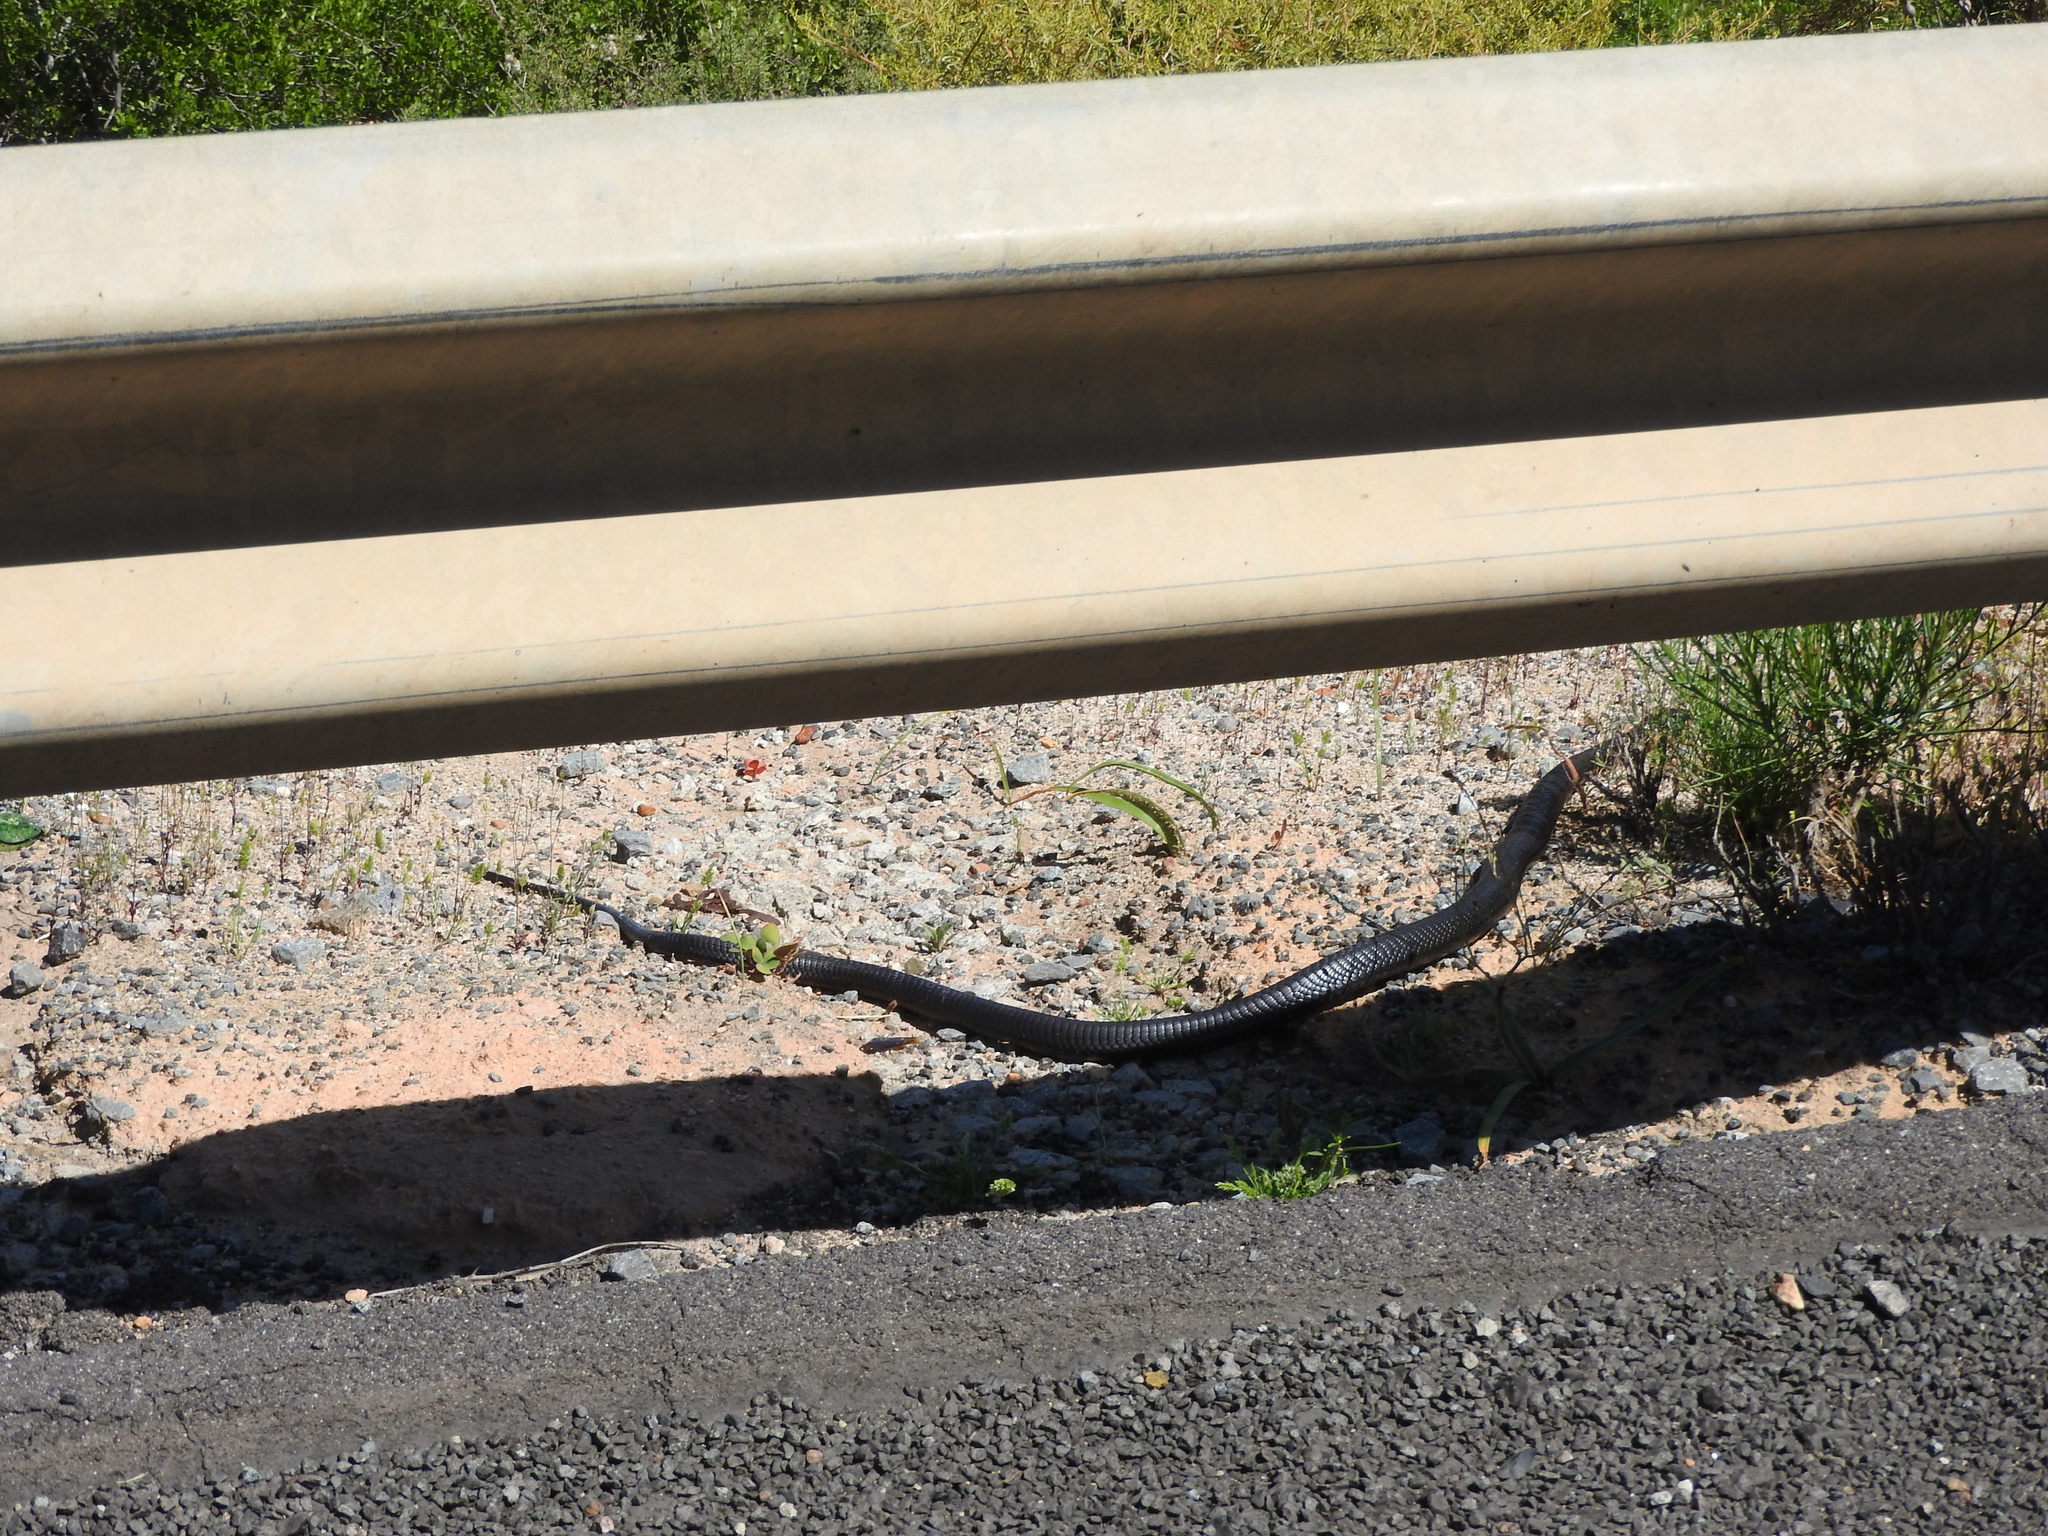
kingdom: Animalia
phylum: Chordata
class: Squamata
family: Elapidae
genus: Naja
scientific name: Naja nigricincta
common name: Black spitting cobra
